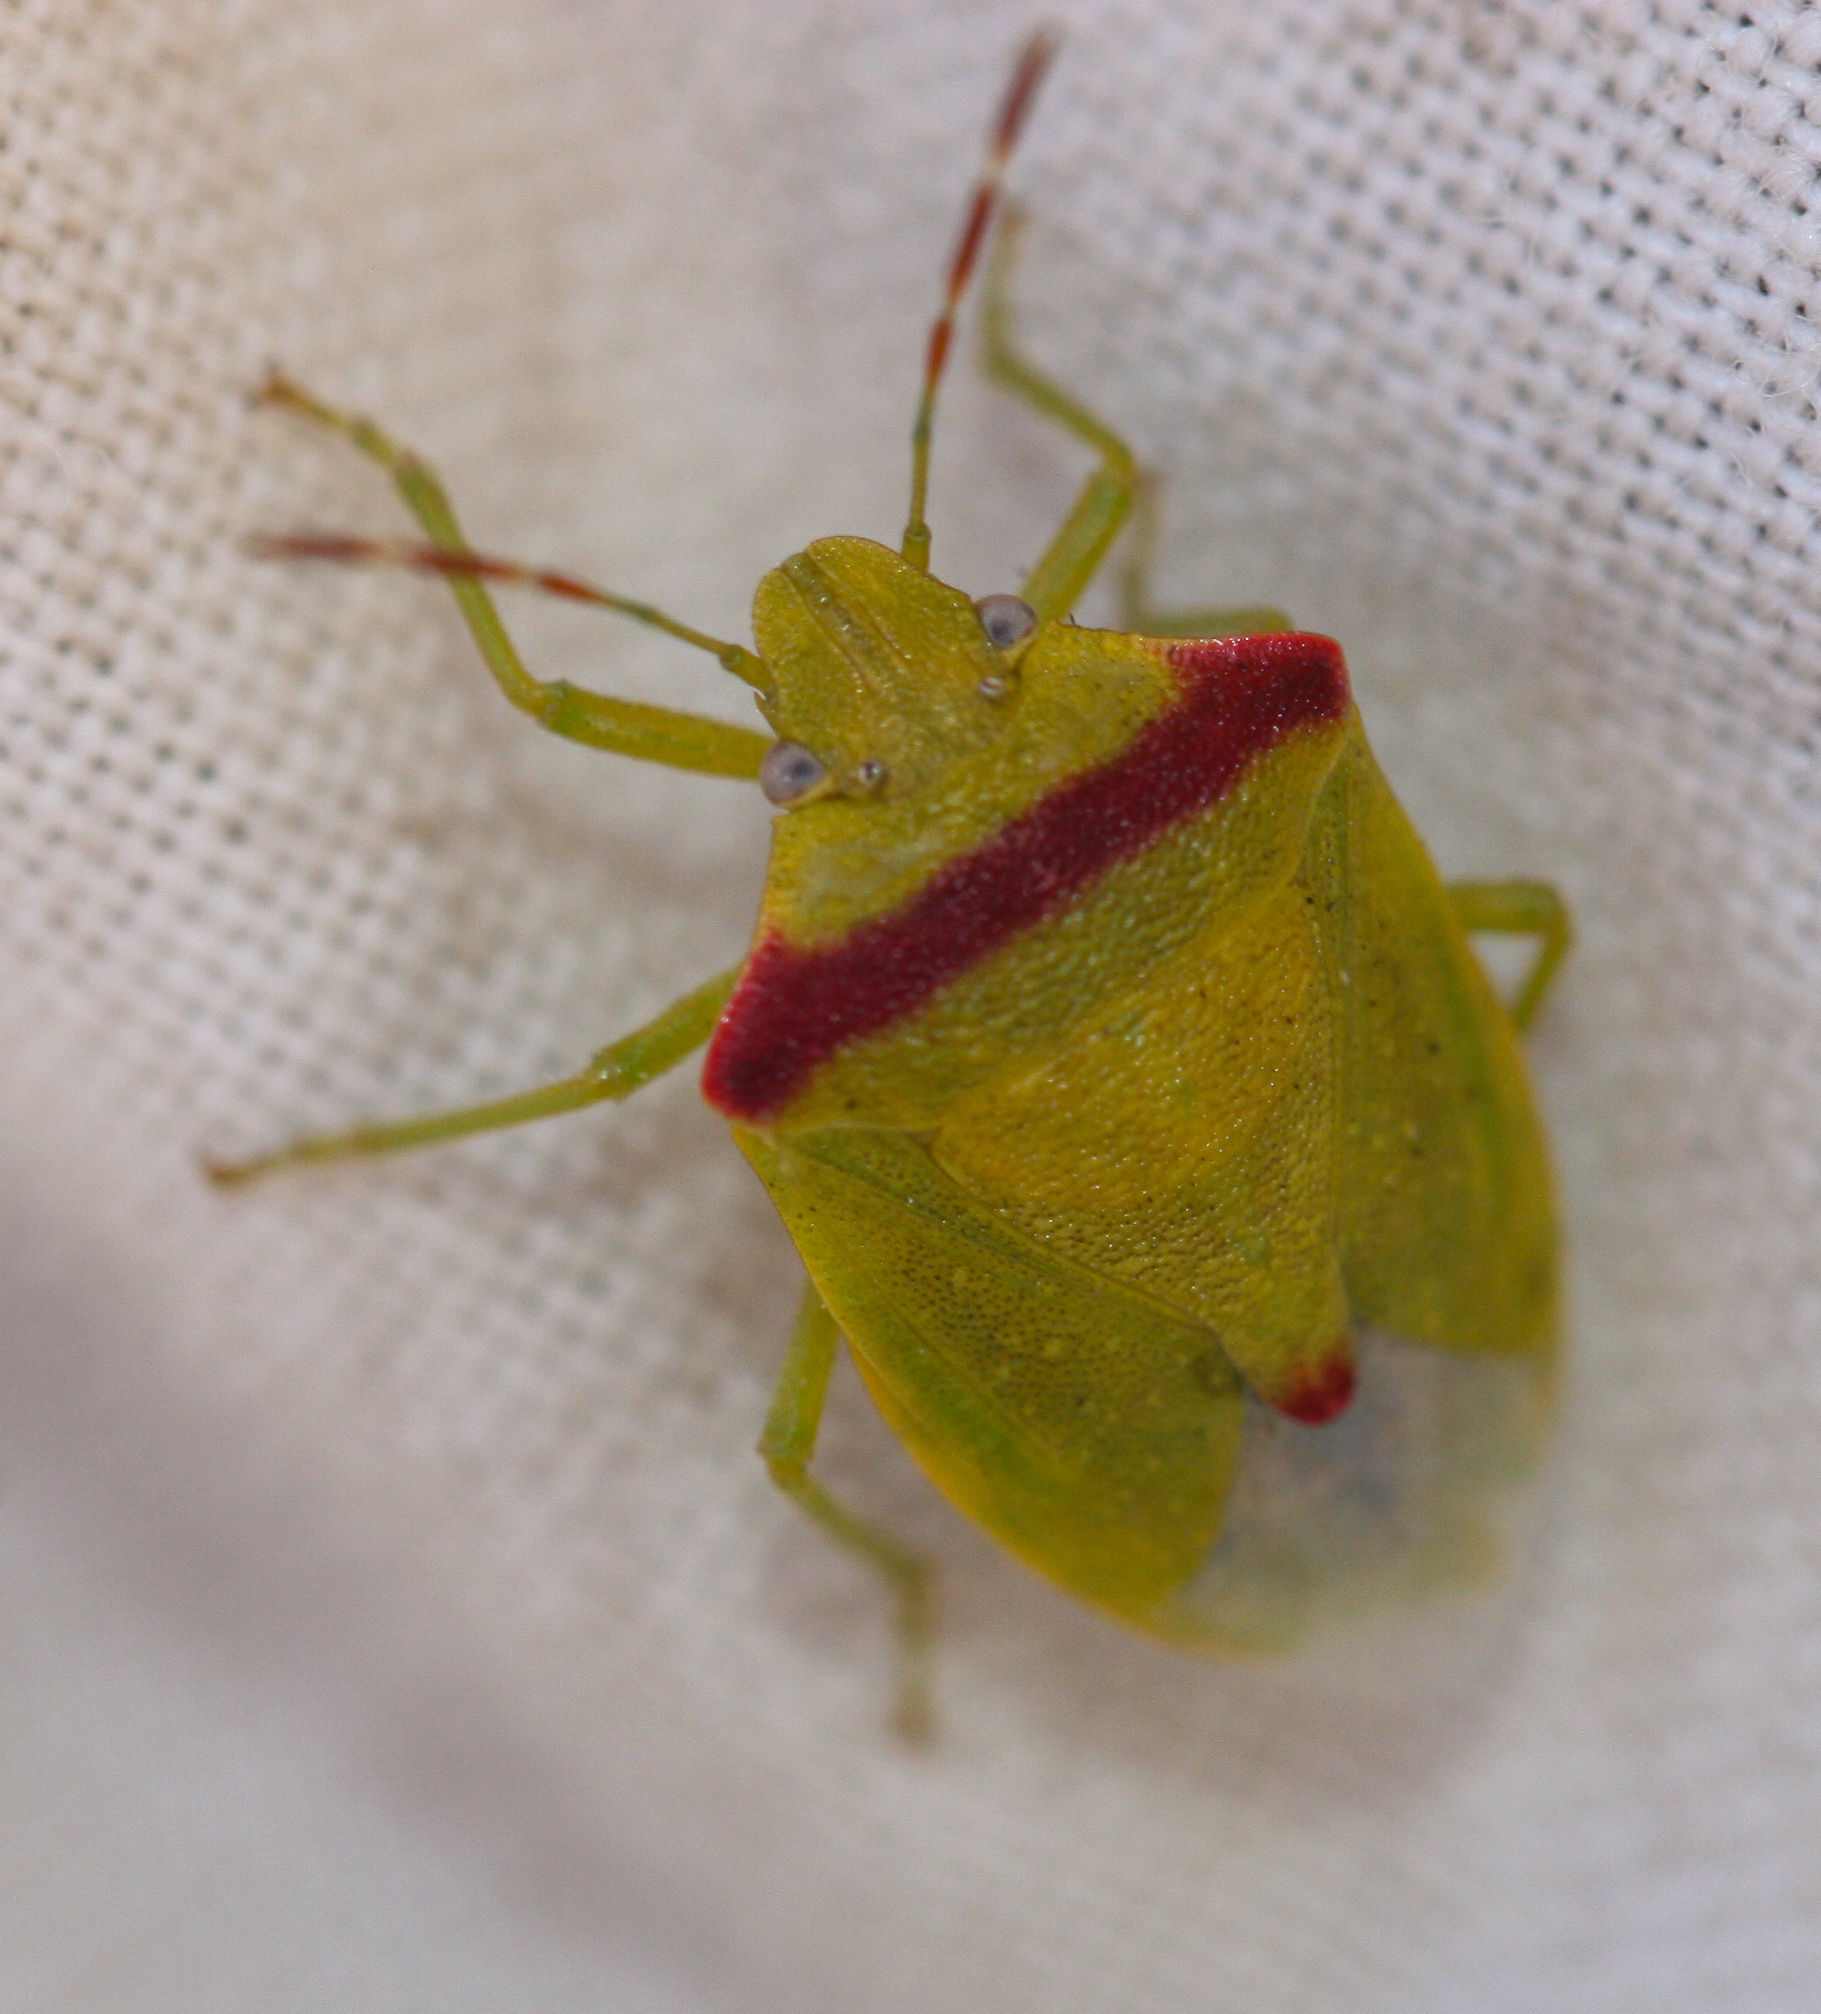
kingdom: Animalia
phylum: Arthropoda
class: Insecta
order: Hemiptera
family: Pentatomidae
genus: Thyanta
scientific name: Thyanta pallidovirens
